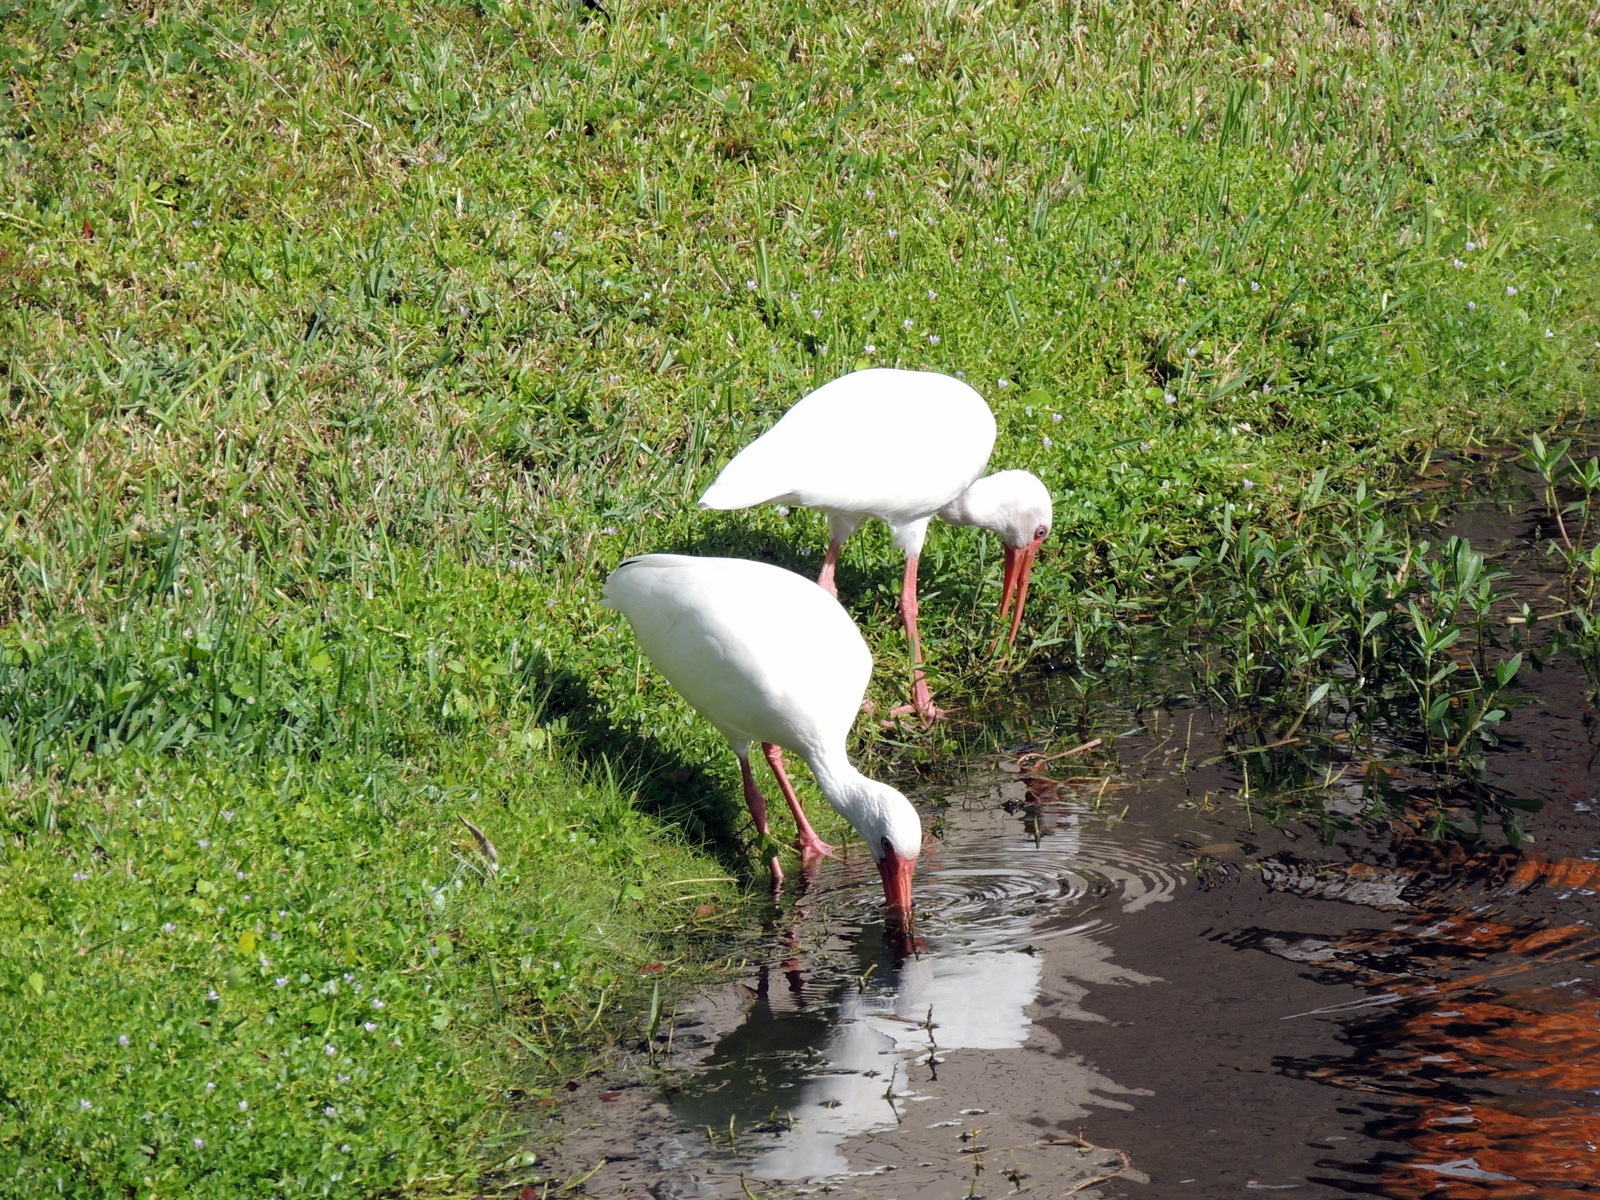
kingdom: Animalia
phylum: Chordata
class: Aves
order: Pelecaniformes
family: Threskiornithidae
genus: Eudocimus
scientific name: Eudocimus albus
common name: White ibis
